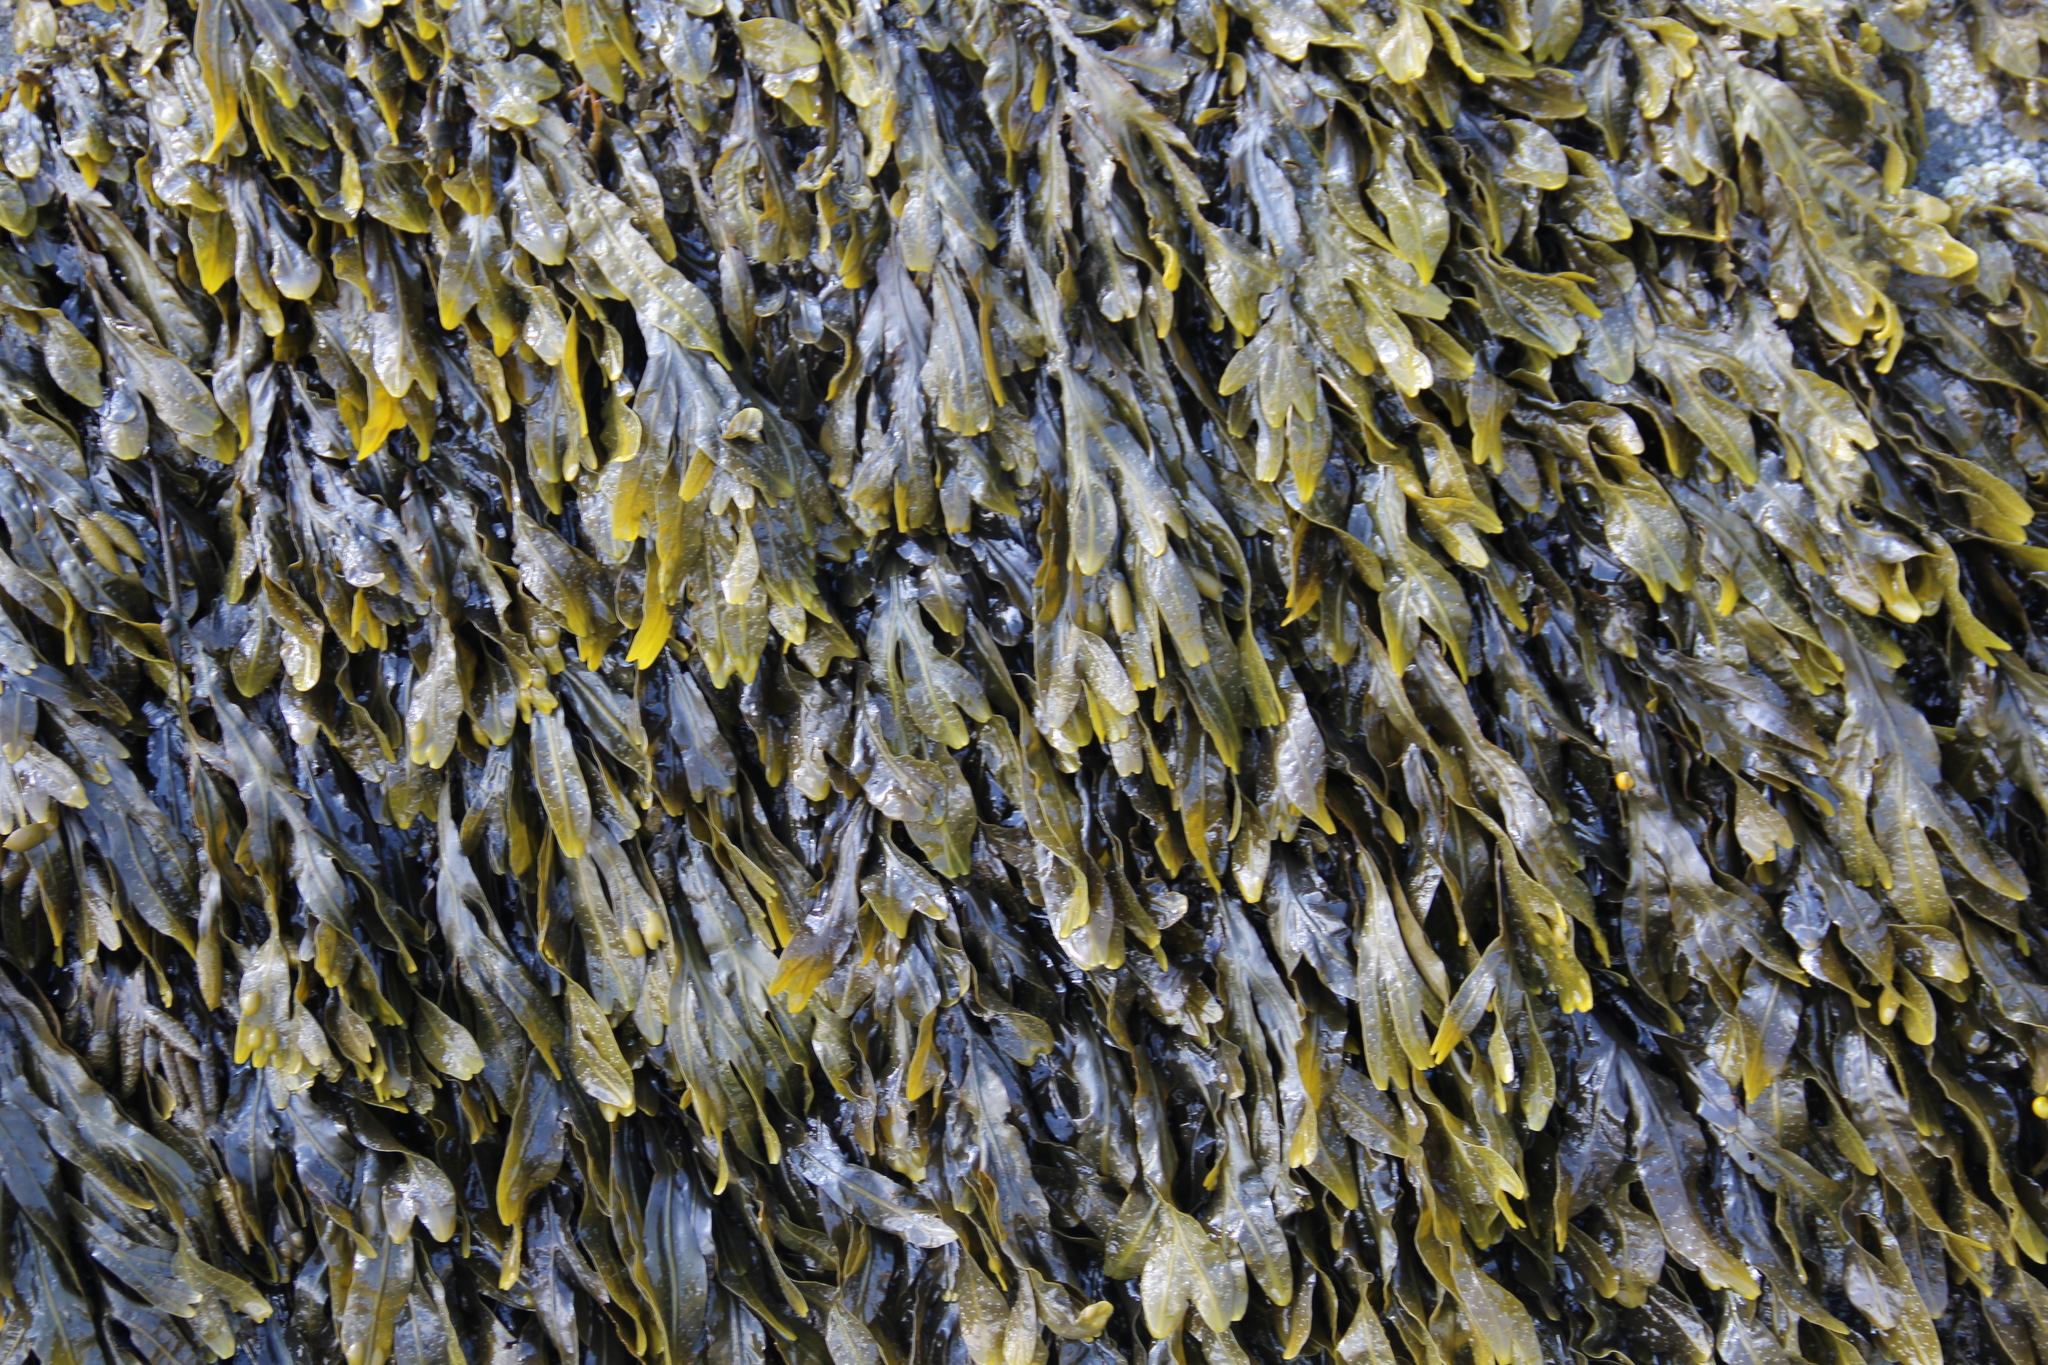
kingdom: Chromista
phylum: Ochrophyta
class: Phaeophyceae
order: Fucales
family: Fucaceae
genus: Fucus
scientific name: Fucus distichus
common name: Rockweed
